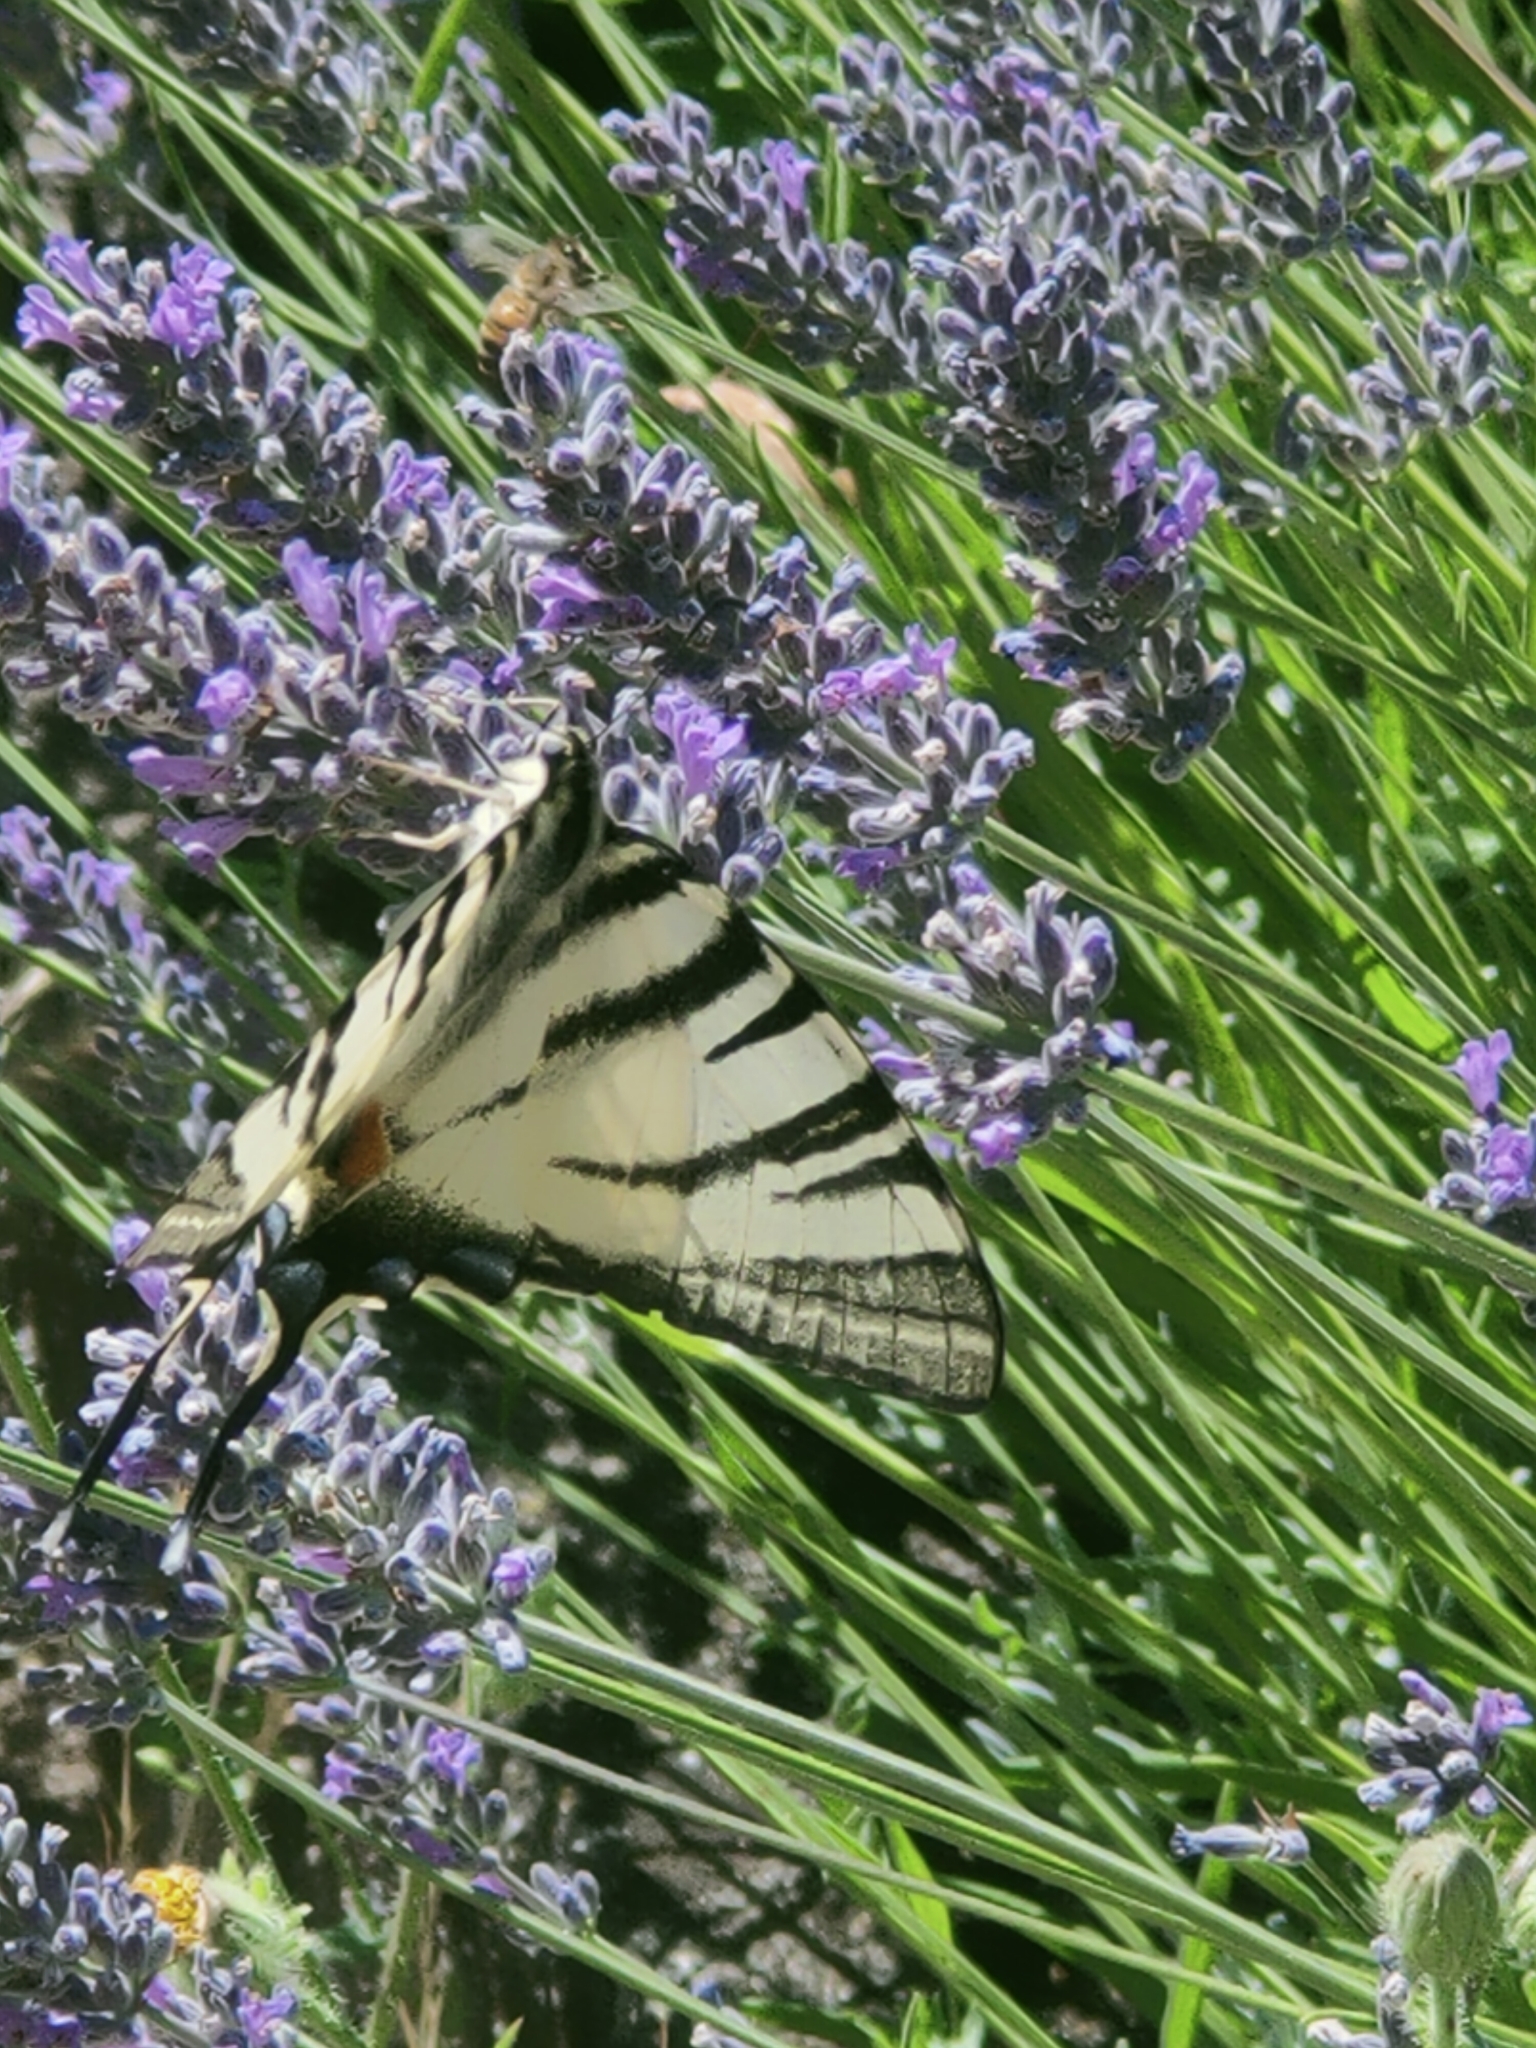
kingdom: Animalia
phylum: Arthropoda
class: Insecta
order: Lepidoptera
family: Papilionidae
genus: Iphiclides
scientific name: Iphiclides podalirius
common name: Scarce swallowtail
